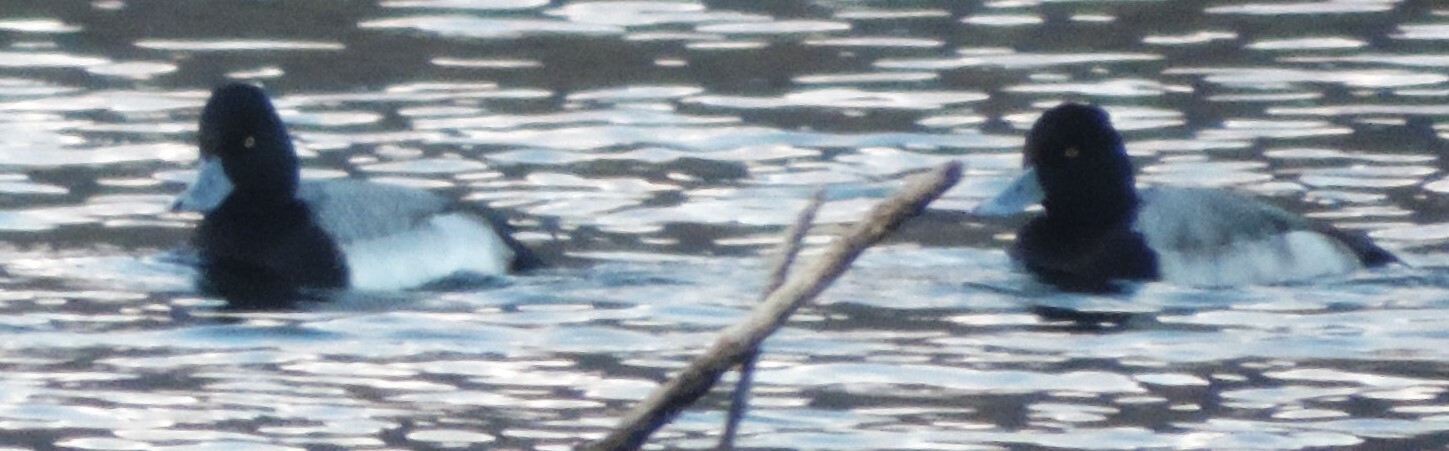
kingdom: Animalia
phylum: Chordata
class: Aves
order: Anseriformes
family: Anatidae
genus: Aythya
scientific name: Aythya affinis
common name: Lesser scaup
